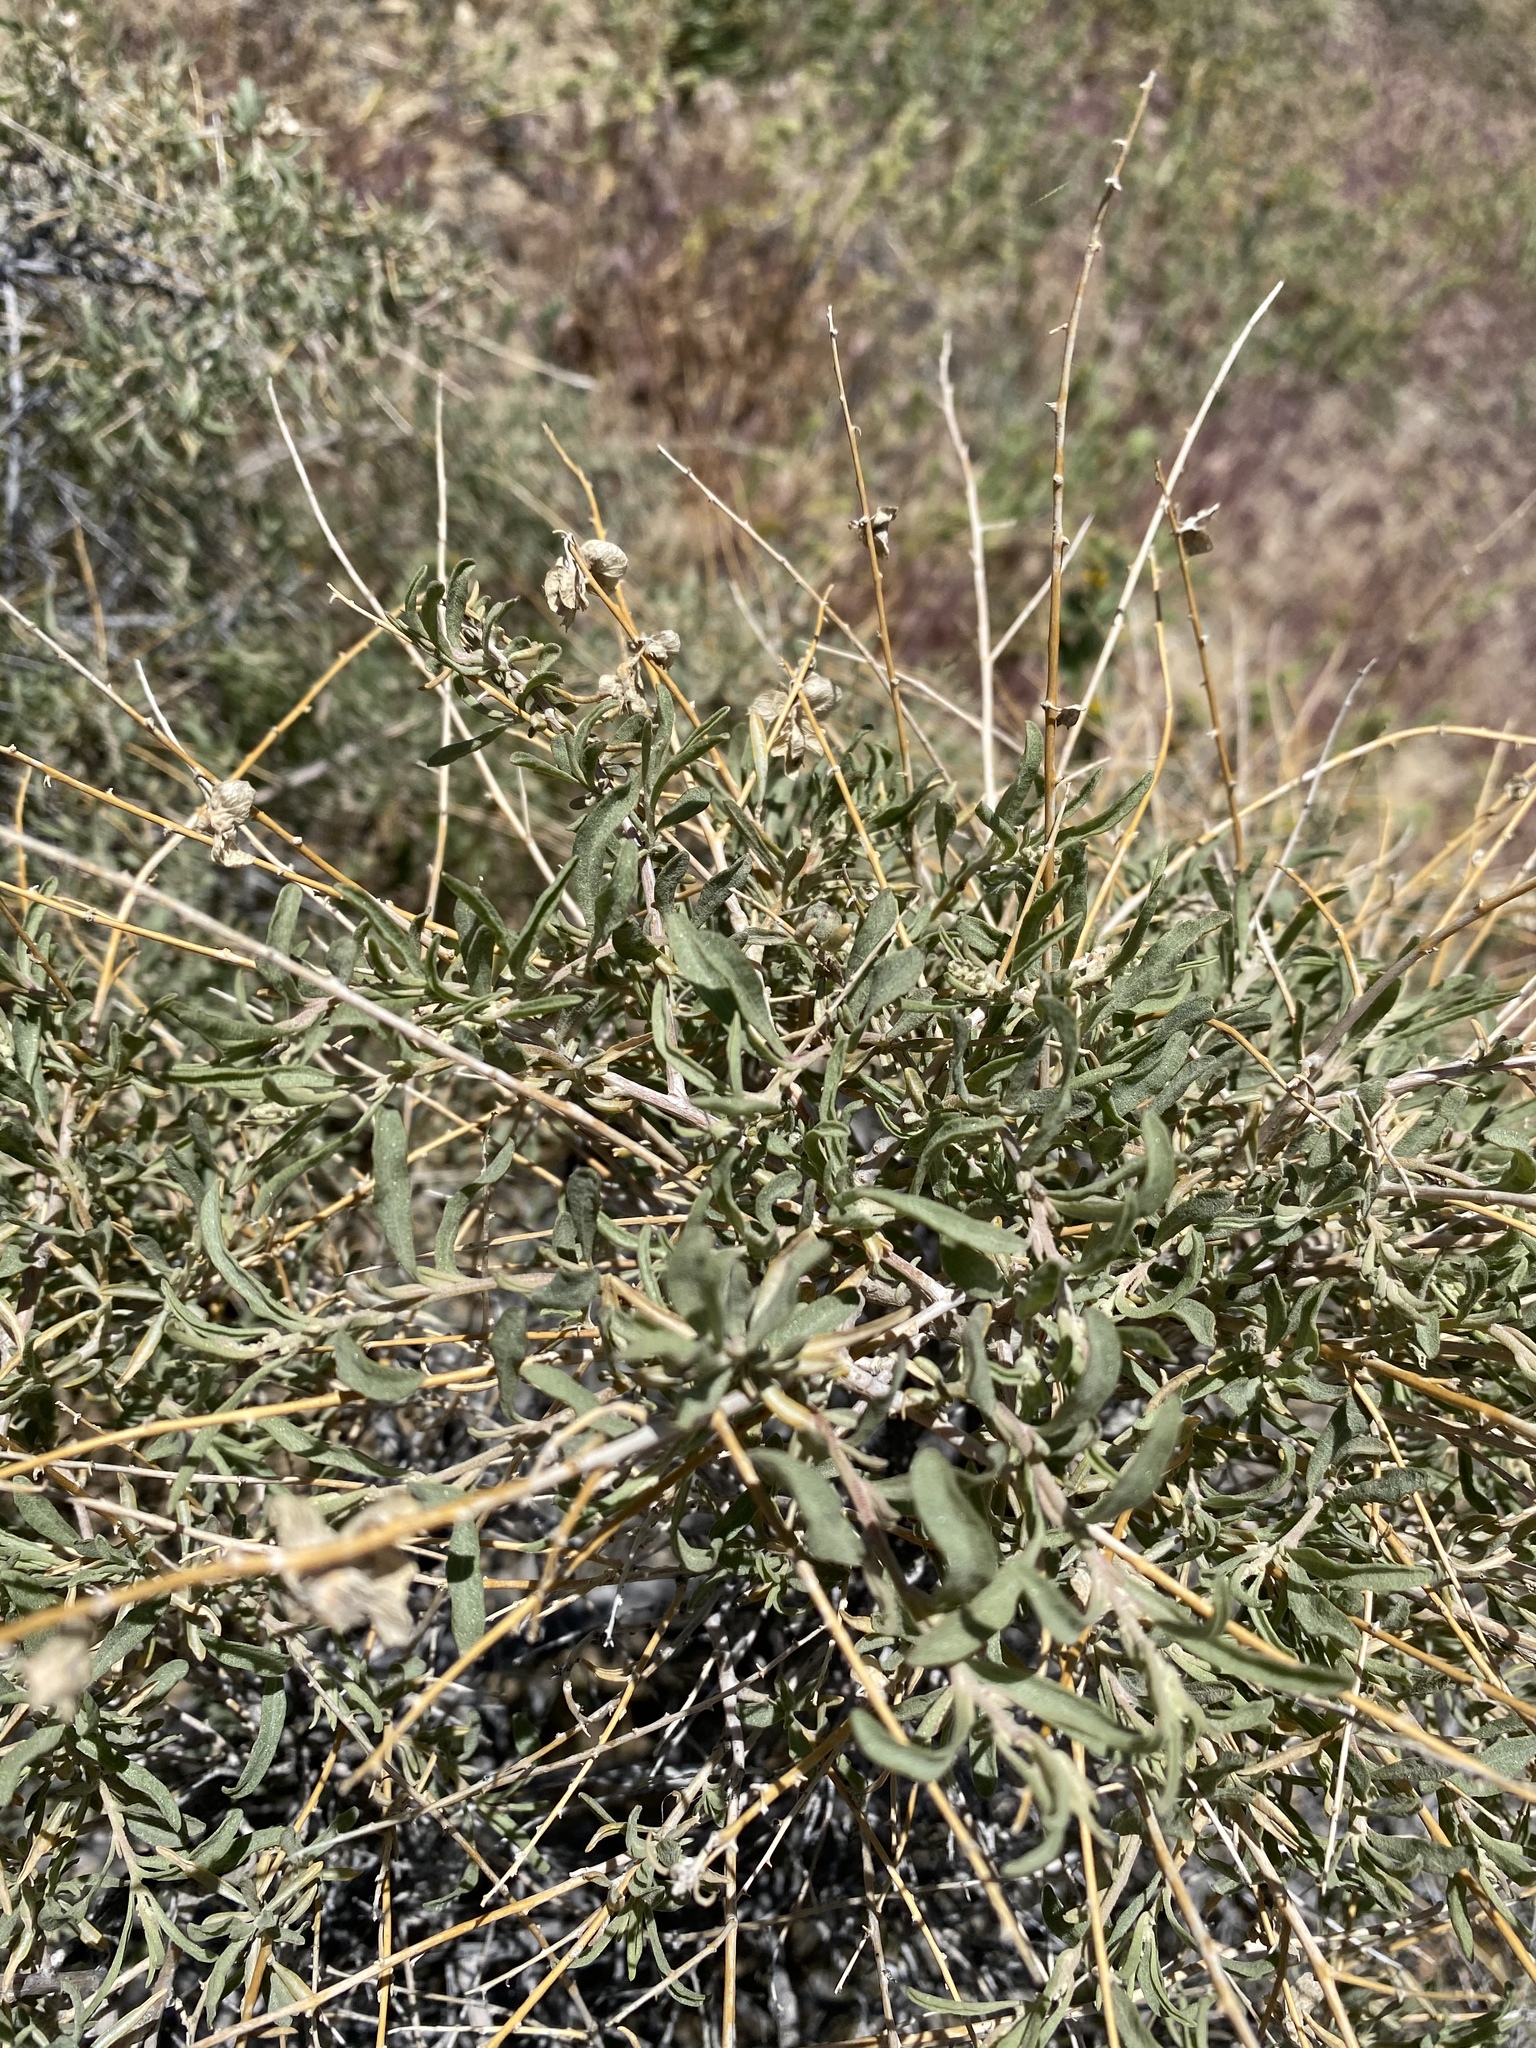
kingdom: Plantae
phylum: Tracheophyta
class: Magnoliopsida
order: Caryophyllales
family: Amaranthaceae
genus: Atriplex
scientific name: Atriplex canescens
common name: Four-wing saltbush
